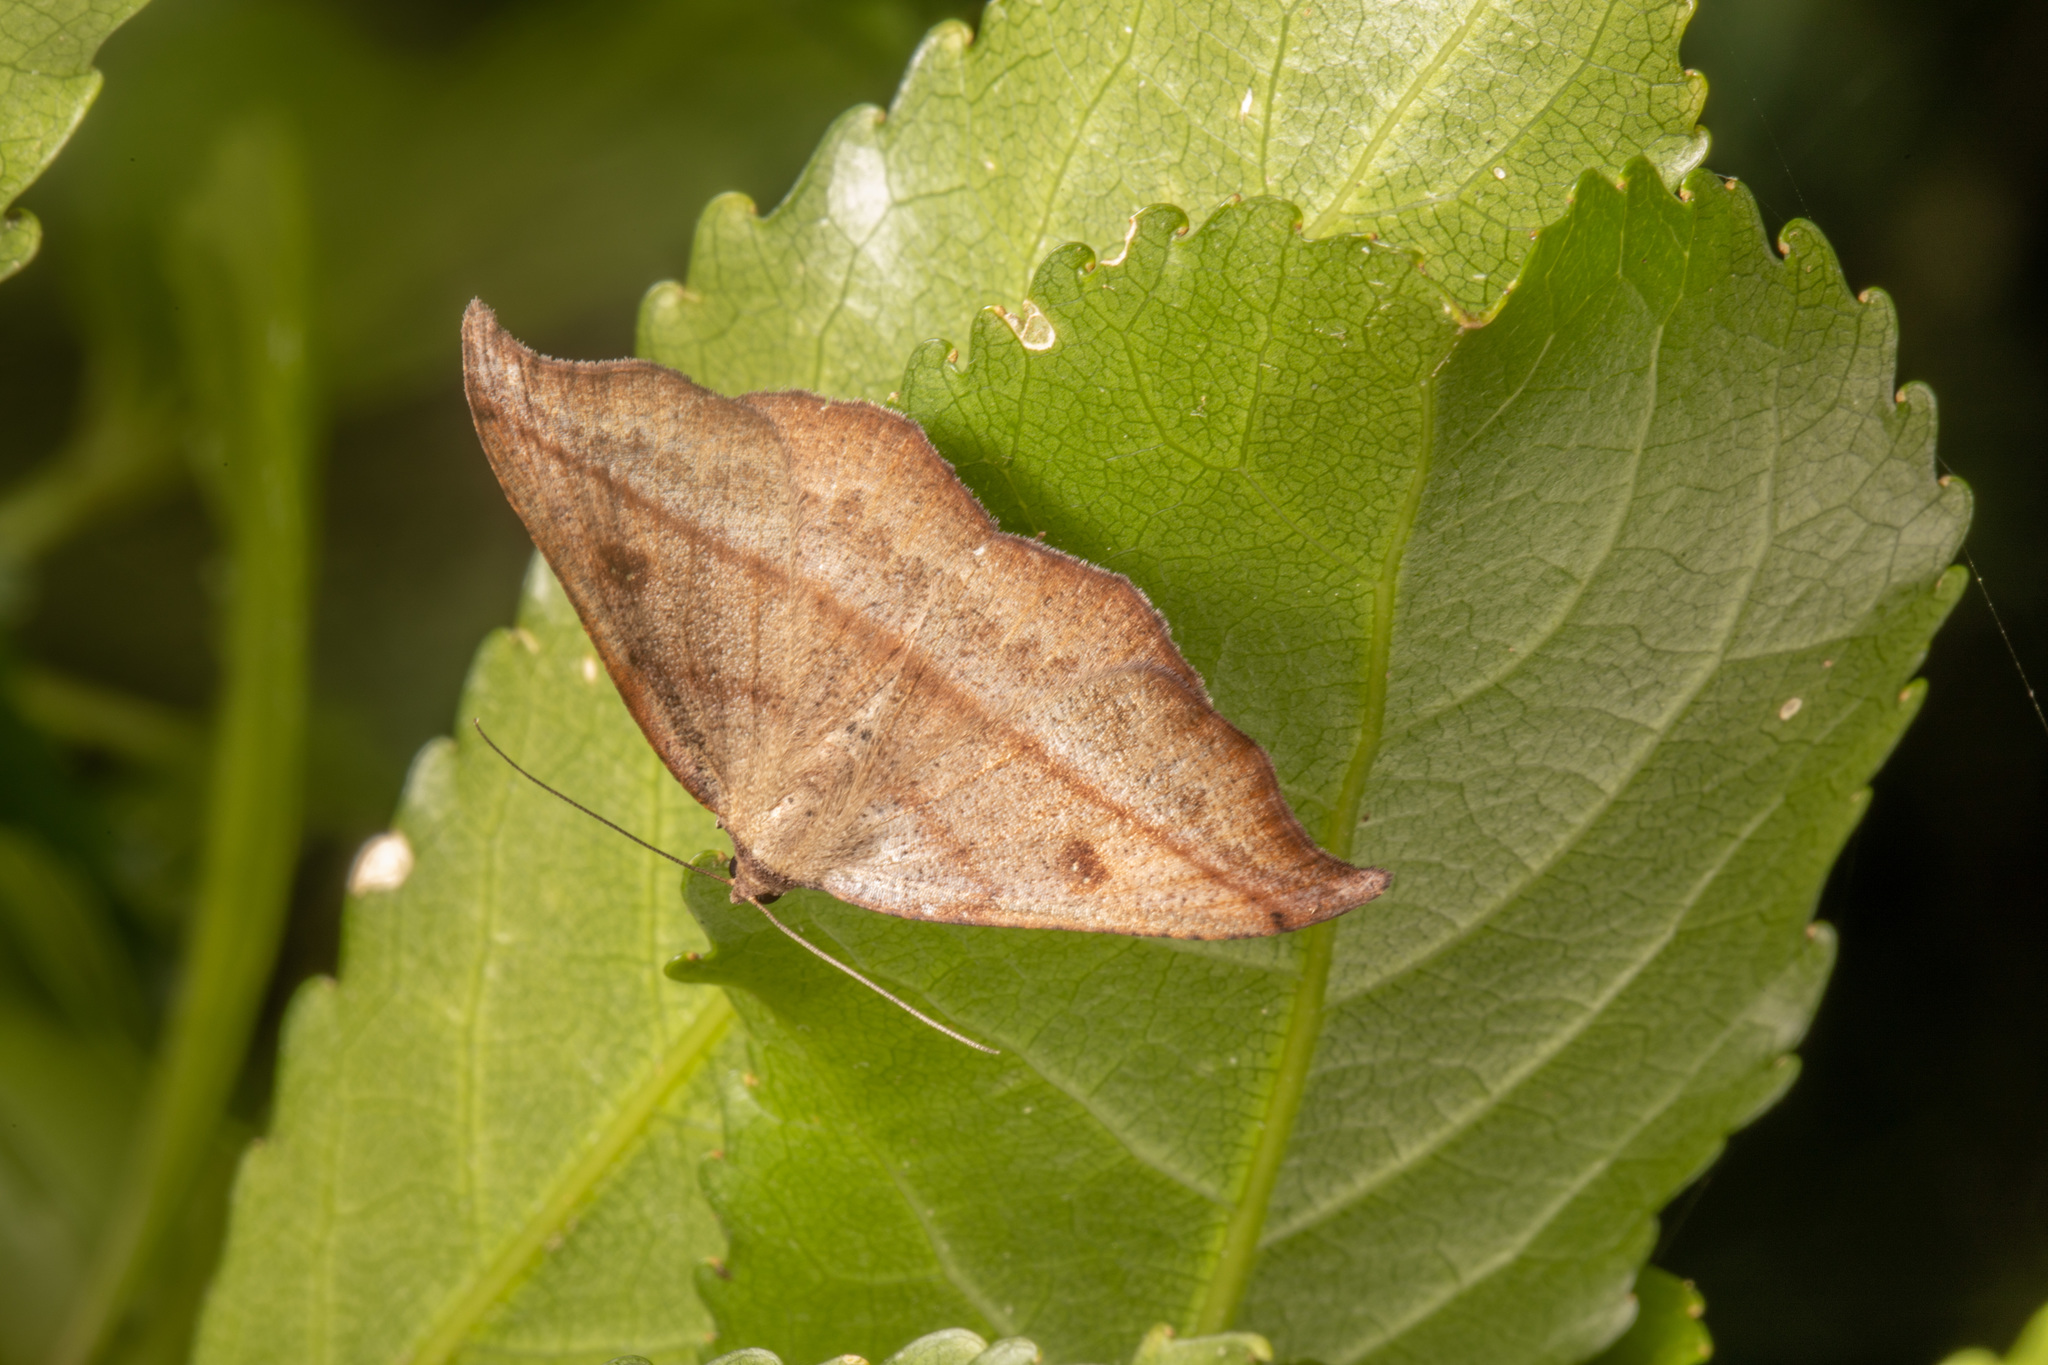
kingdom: Animalia
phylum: Arthropoda
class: Insecta
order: Lepidoptera
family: Geometridae
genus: Sarisa
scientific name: Sarisa muriferata
